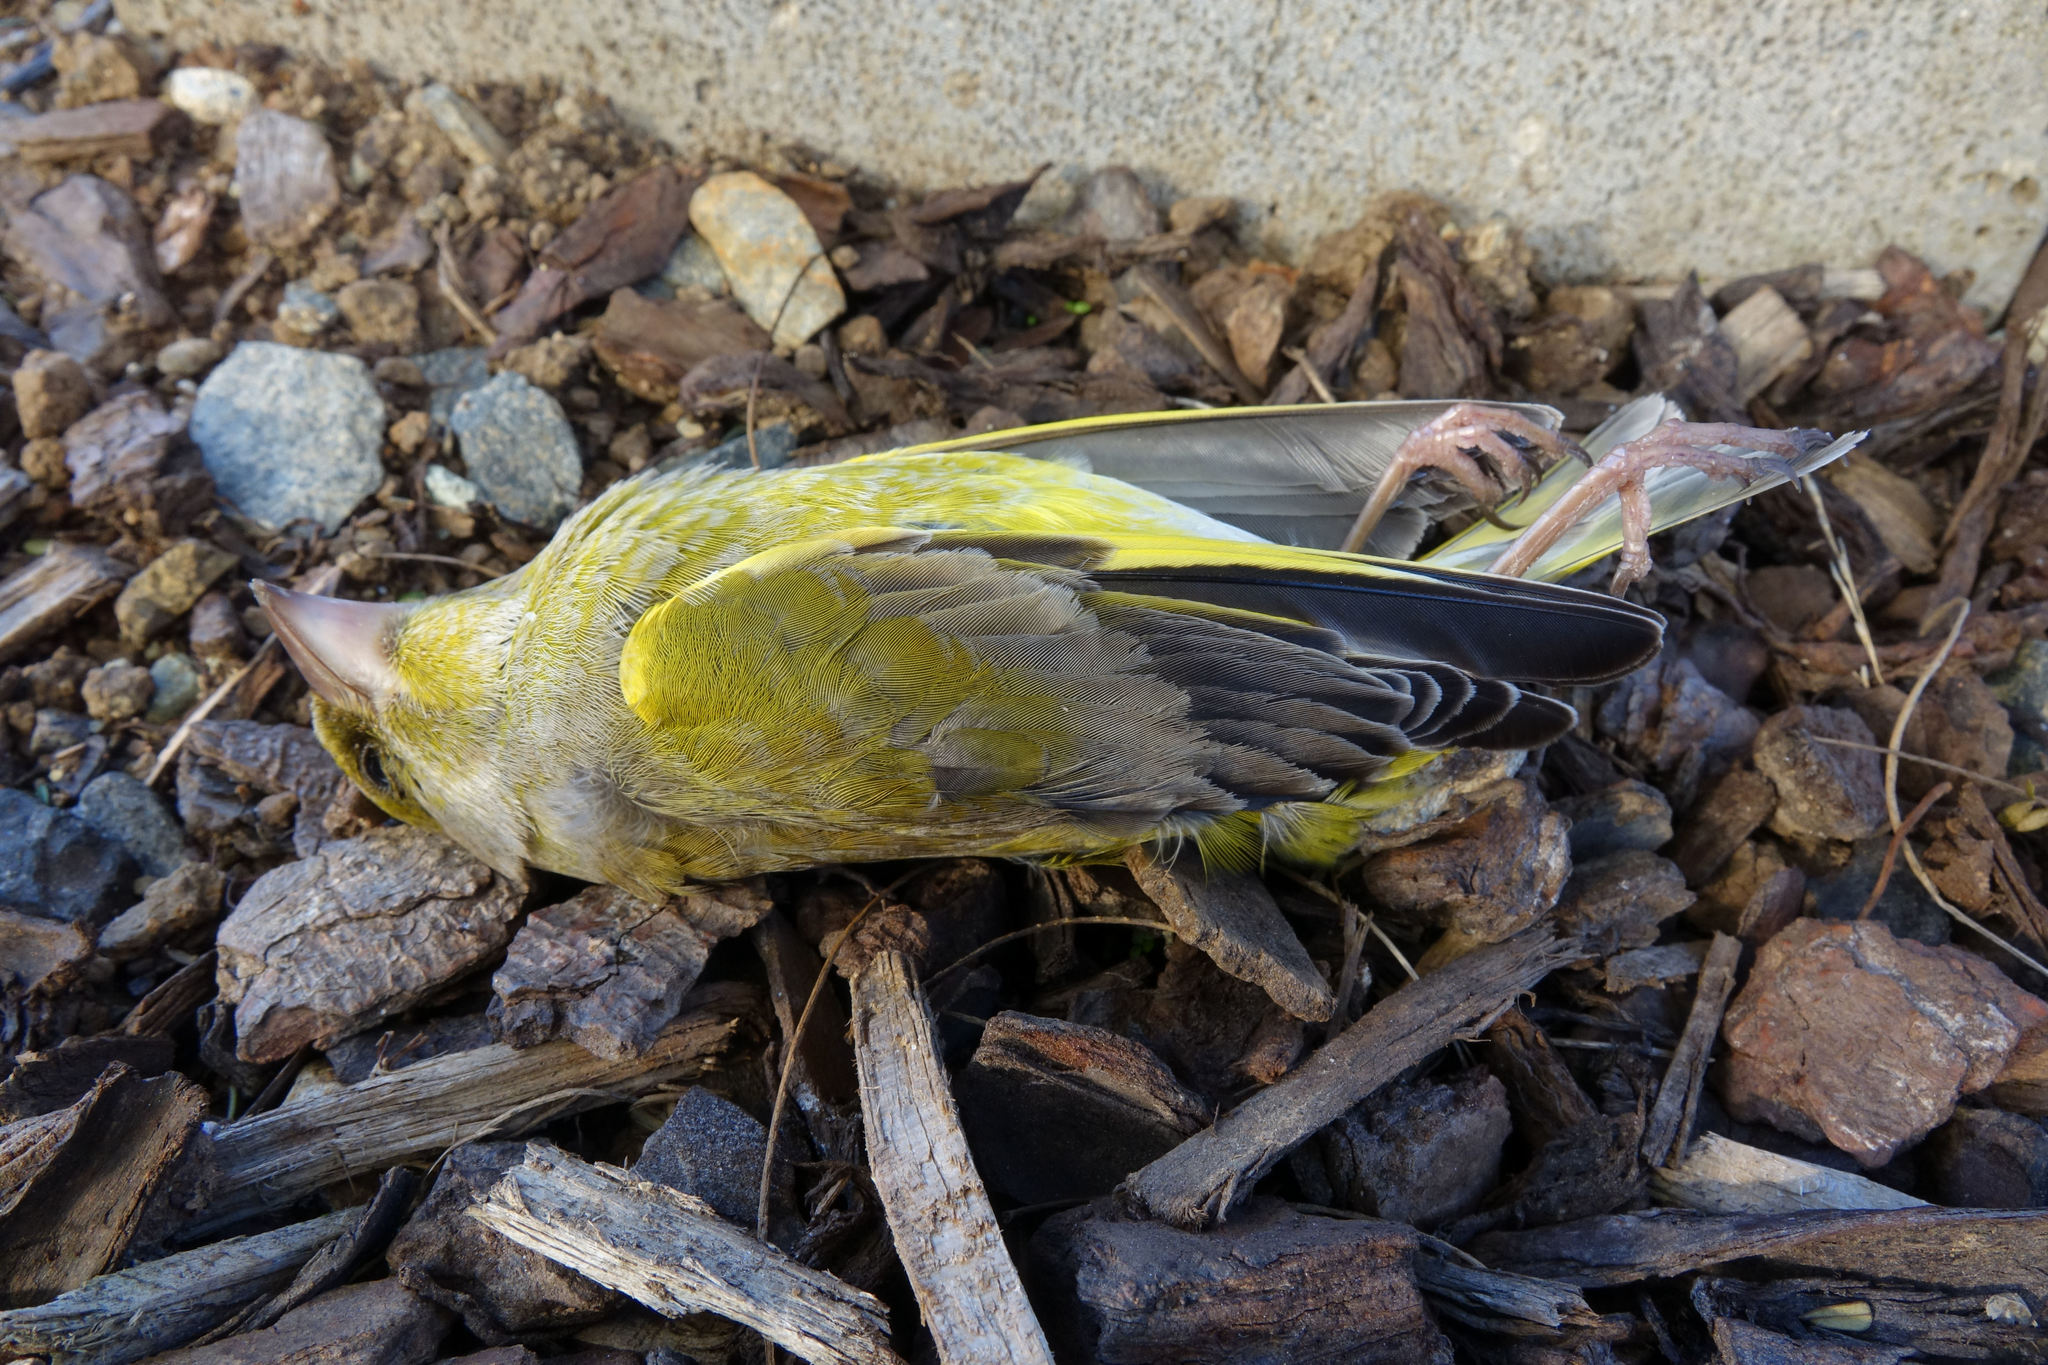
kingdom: Plantae
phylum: Tracheophyta
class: Liliopsida
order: Poales
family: Poaceae
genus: Chloris
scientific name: Chloris chloris
